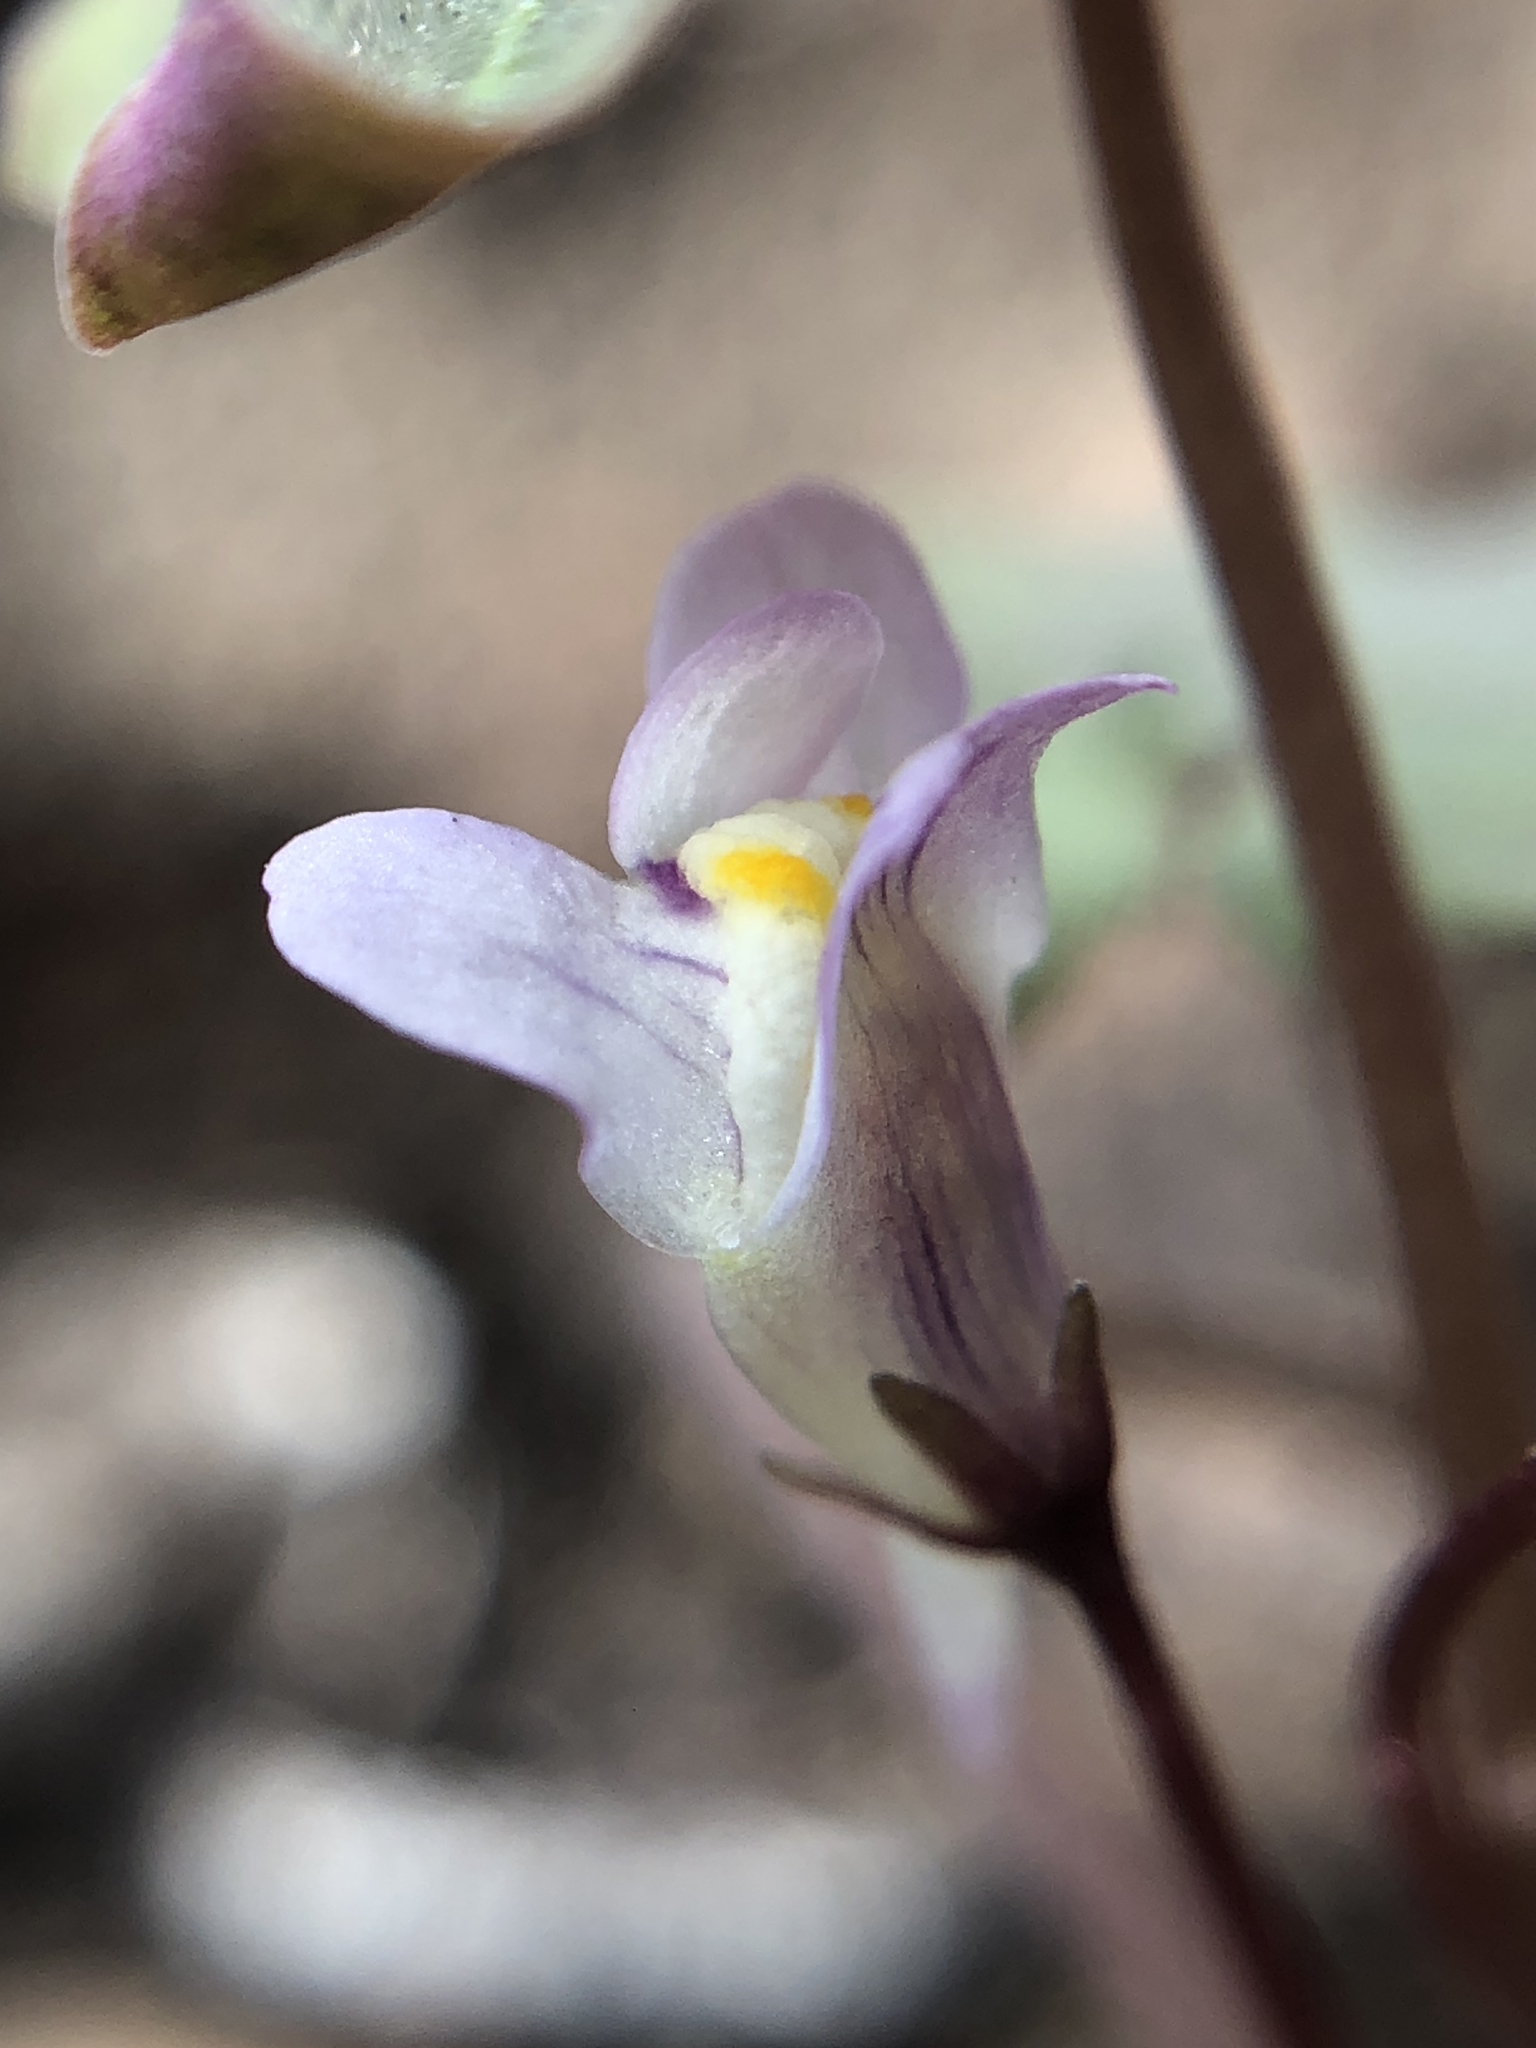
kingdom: Plantae
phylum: Tracheophyta
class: Magnoliopsida
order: Lamiales
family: Plantaginaceae
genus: Cymbalaria
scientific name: Cymbalaria muralis
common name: Ivy-leaved toadflax
